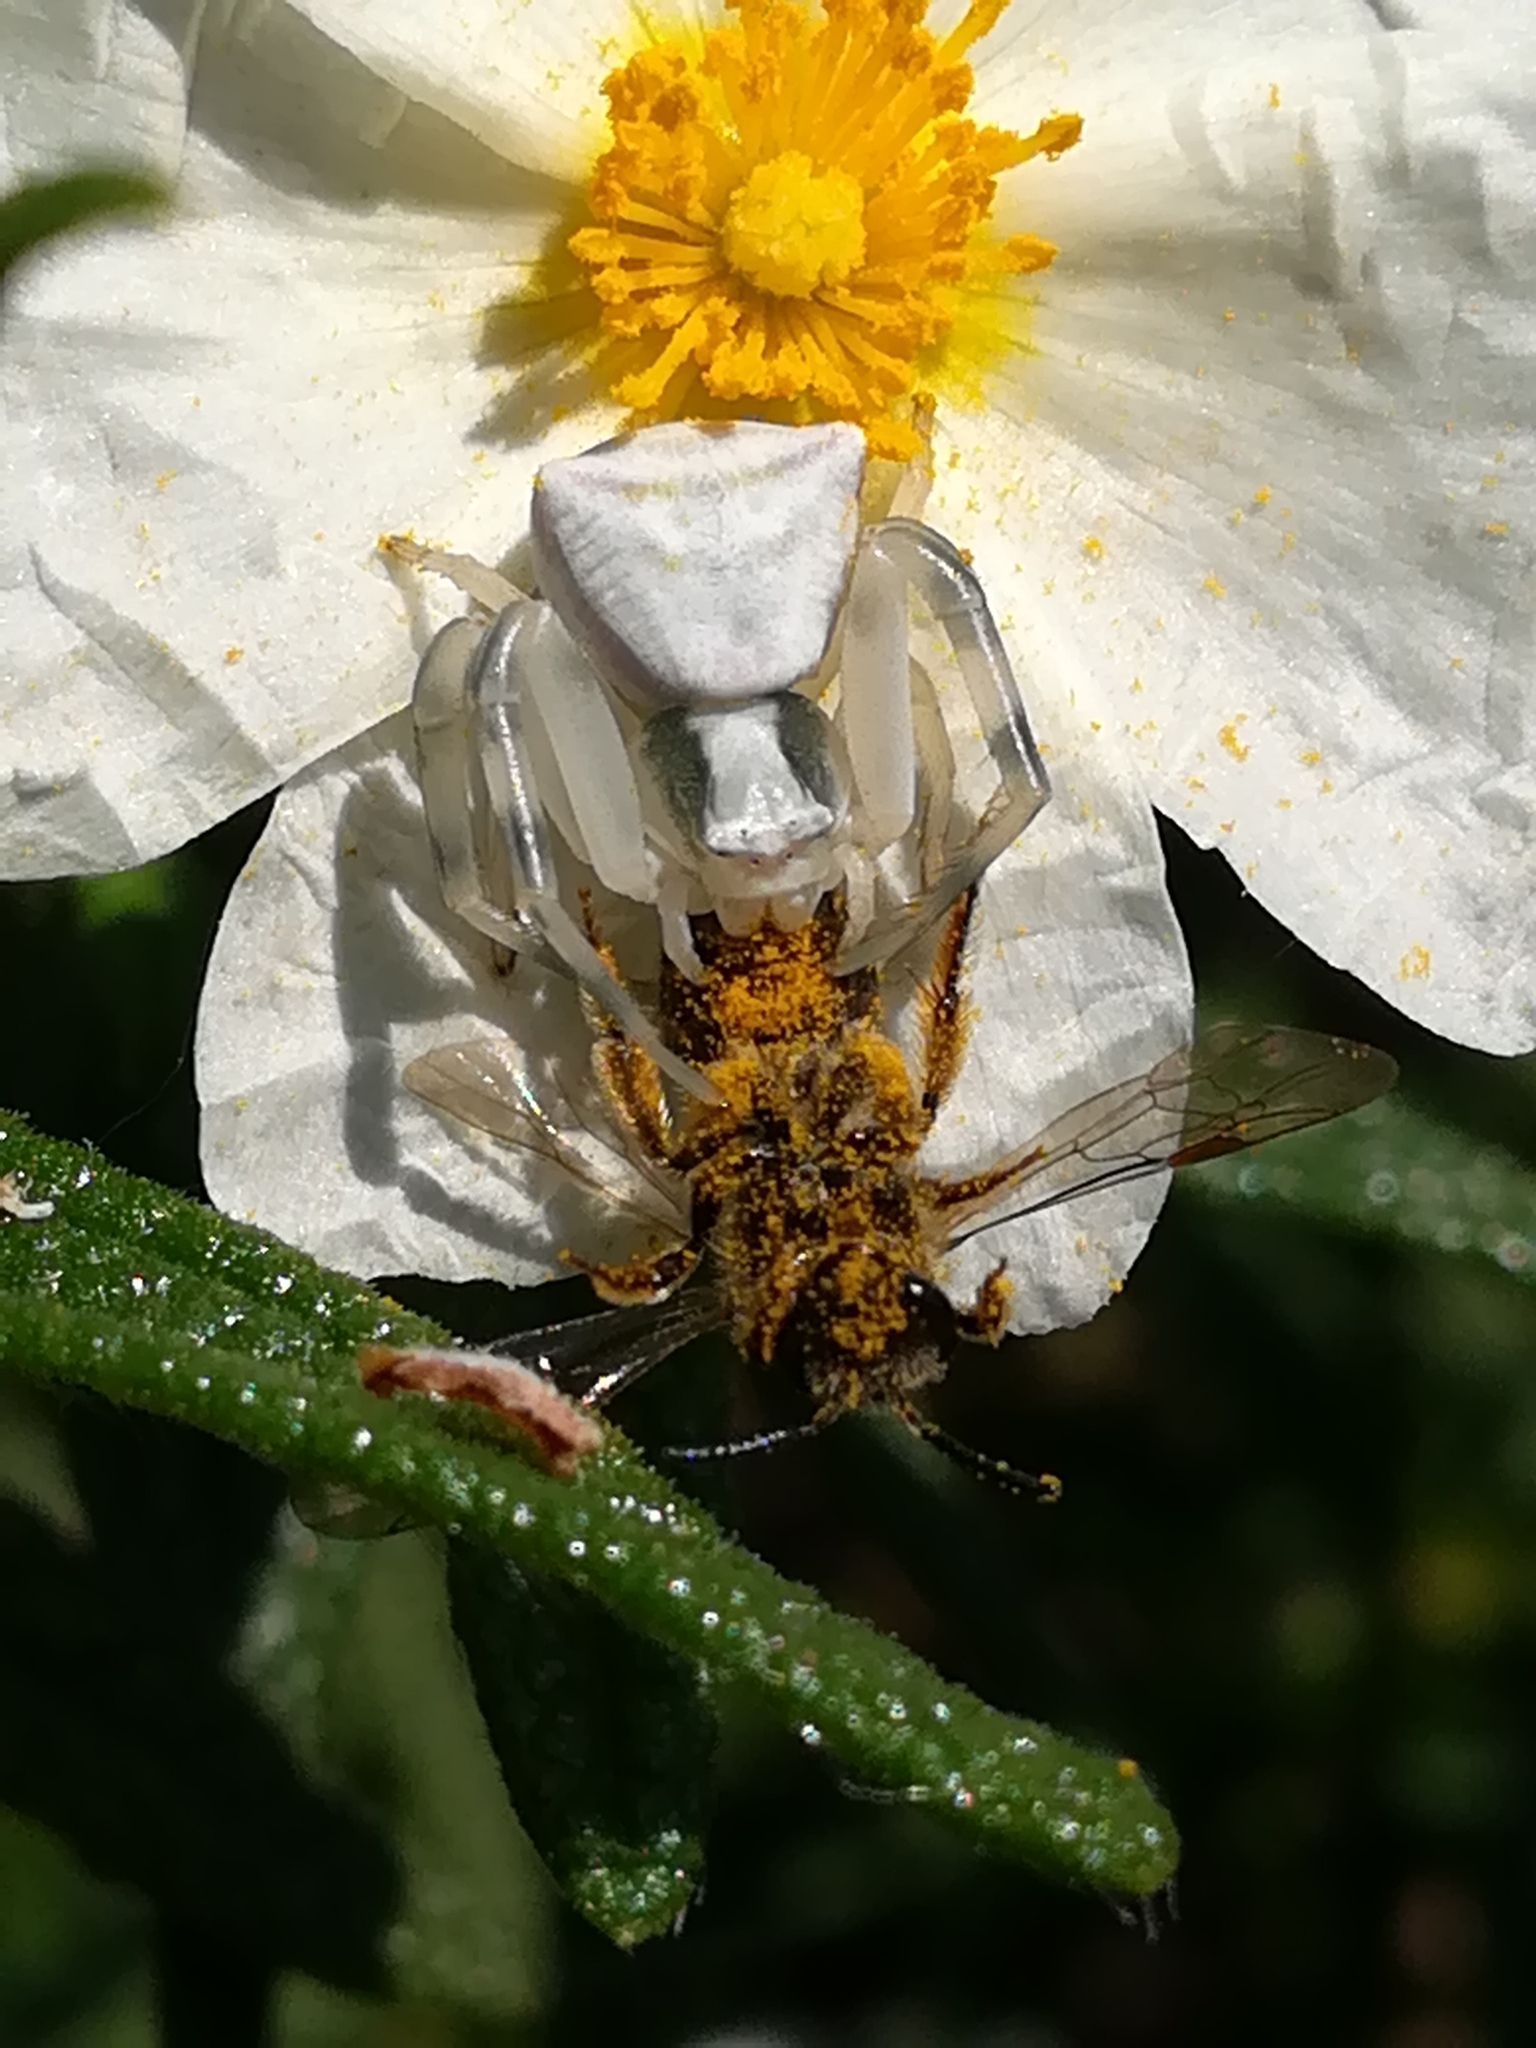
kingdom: Animalia
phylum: Arthropoda
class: Arachnida
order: Araneae
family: Thomisidae
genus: Thomisus
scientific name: Thomisus onustus
